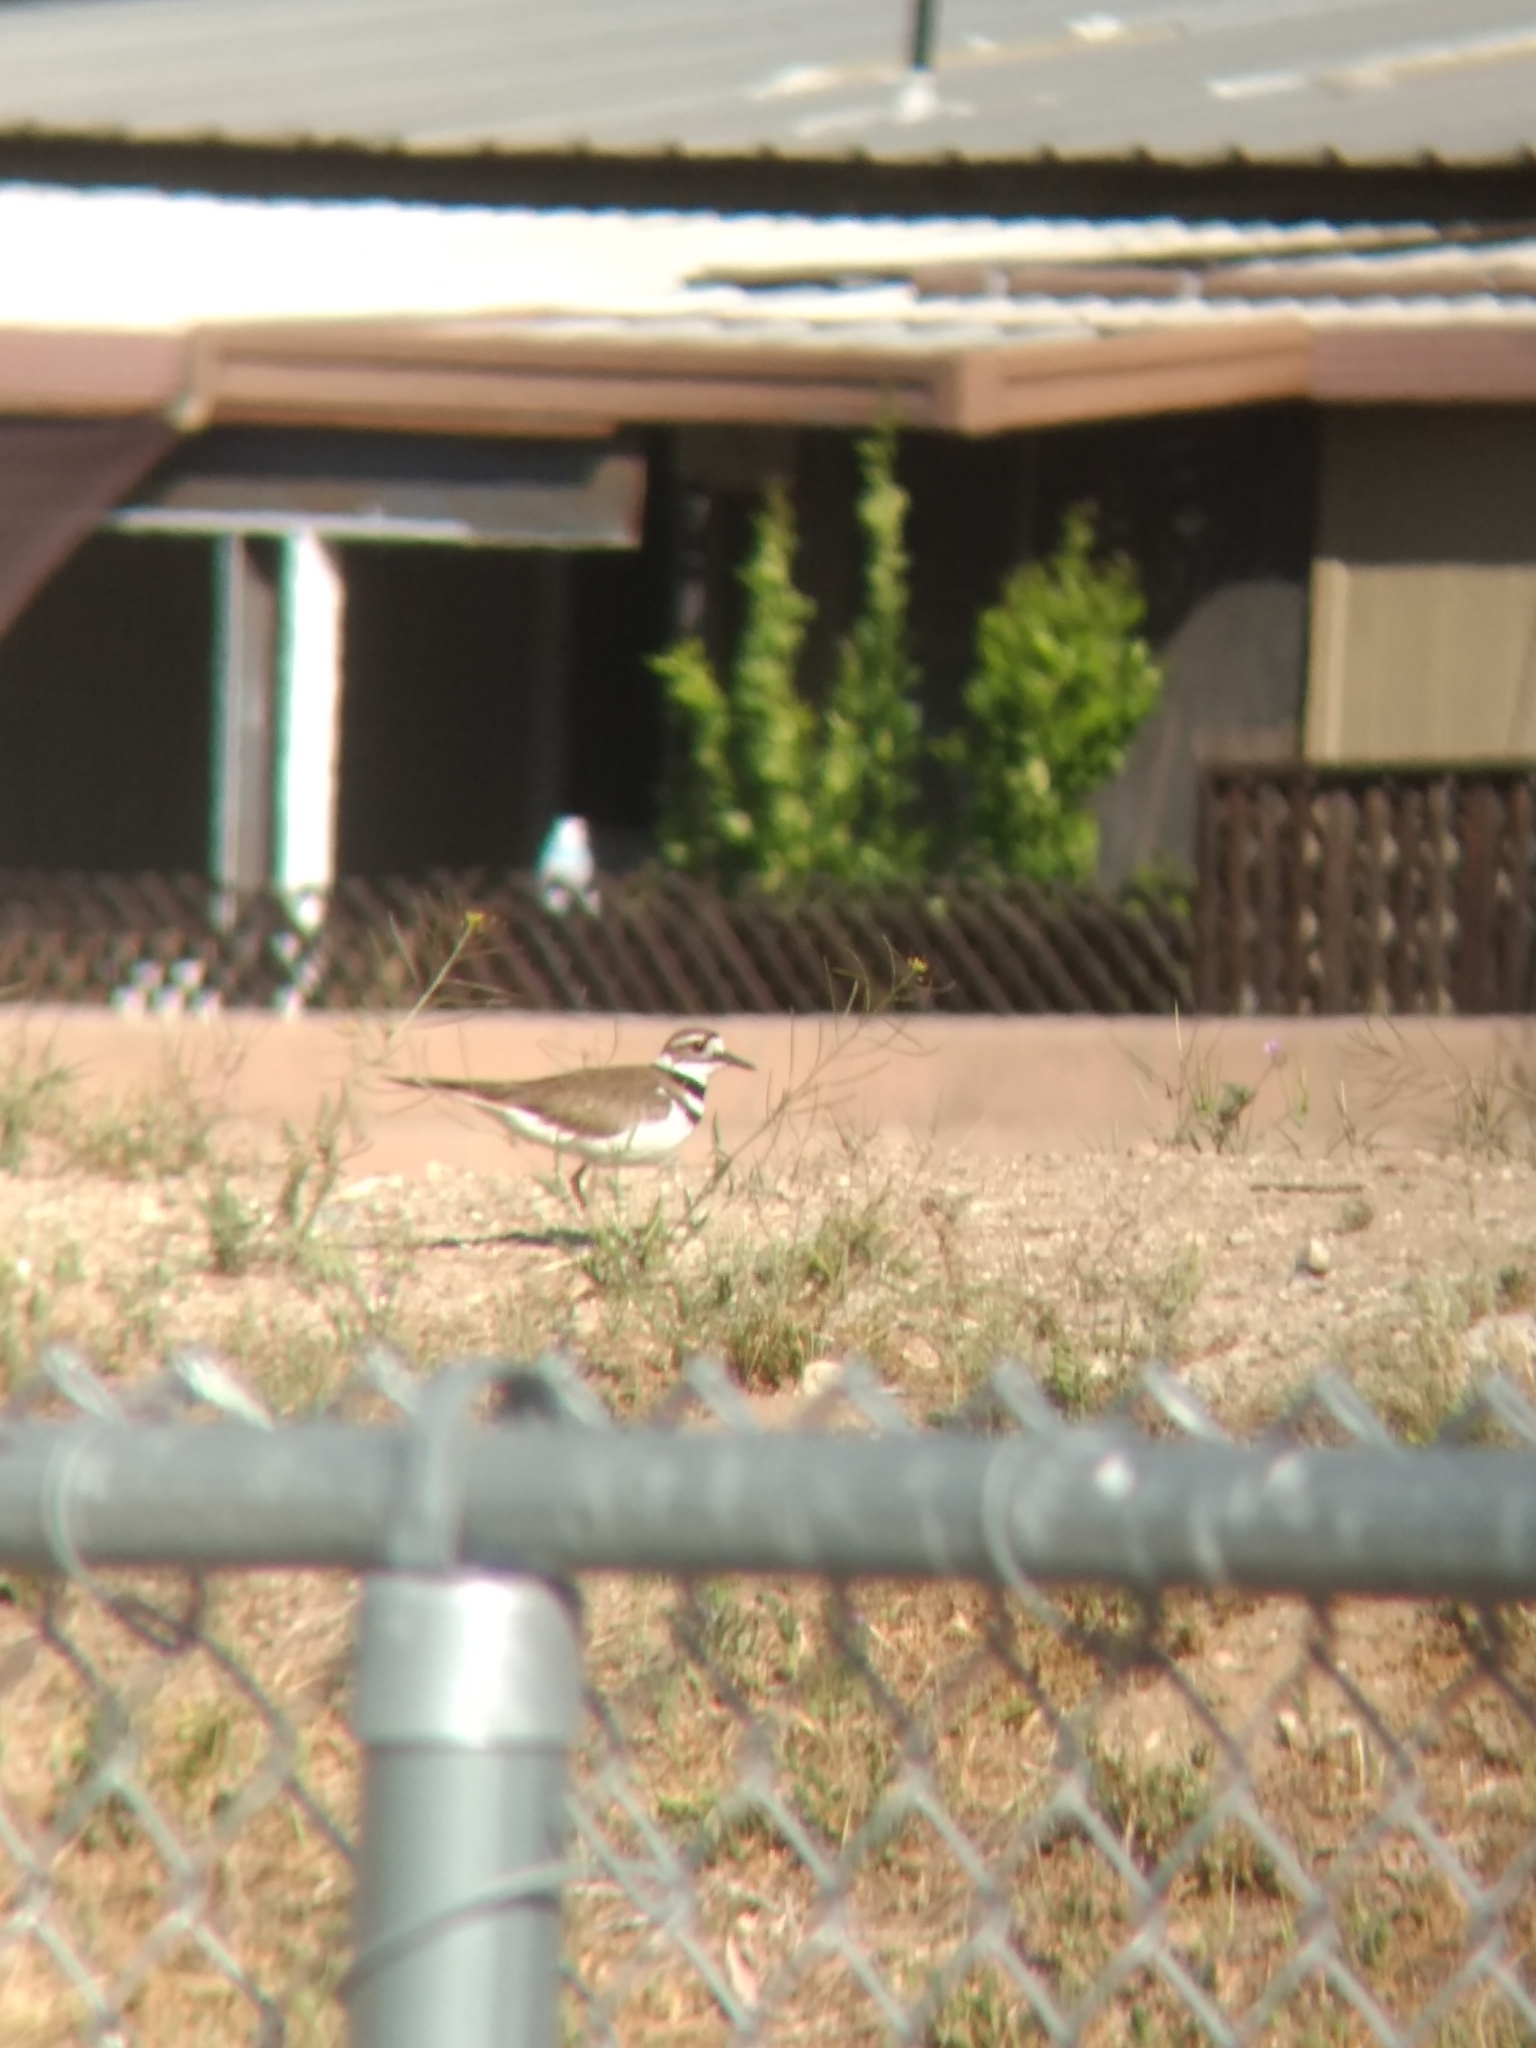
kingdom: Animalia
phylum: Chordata
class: Aves
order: Charadriiformes
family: Charadriidae
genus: Charadrius
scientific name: Charadrius vociferus
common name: Killdeer
